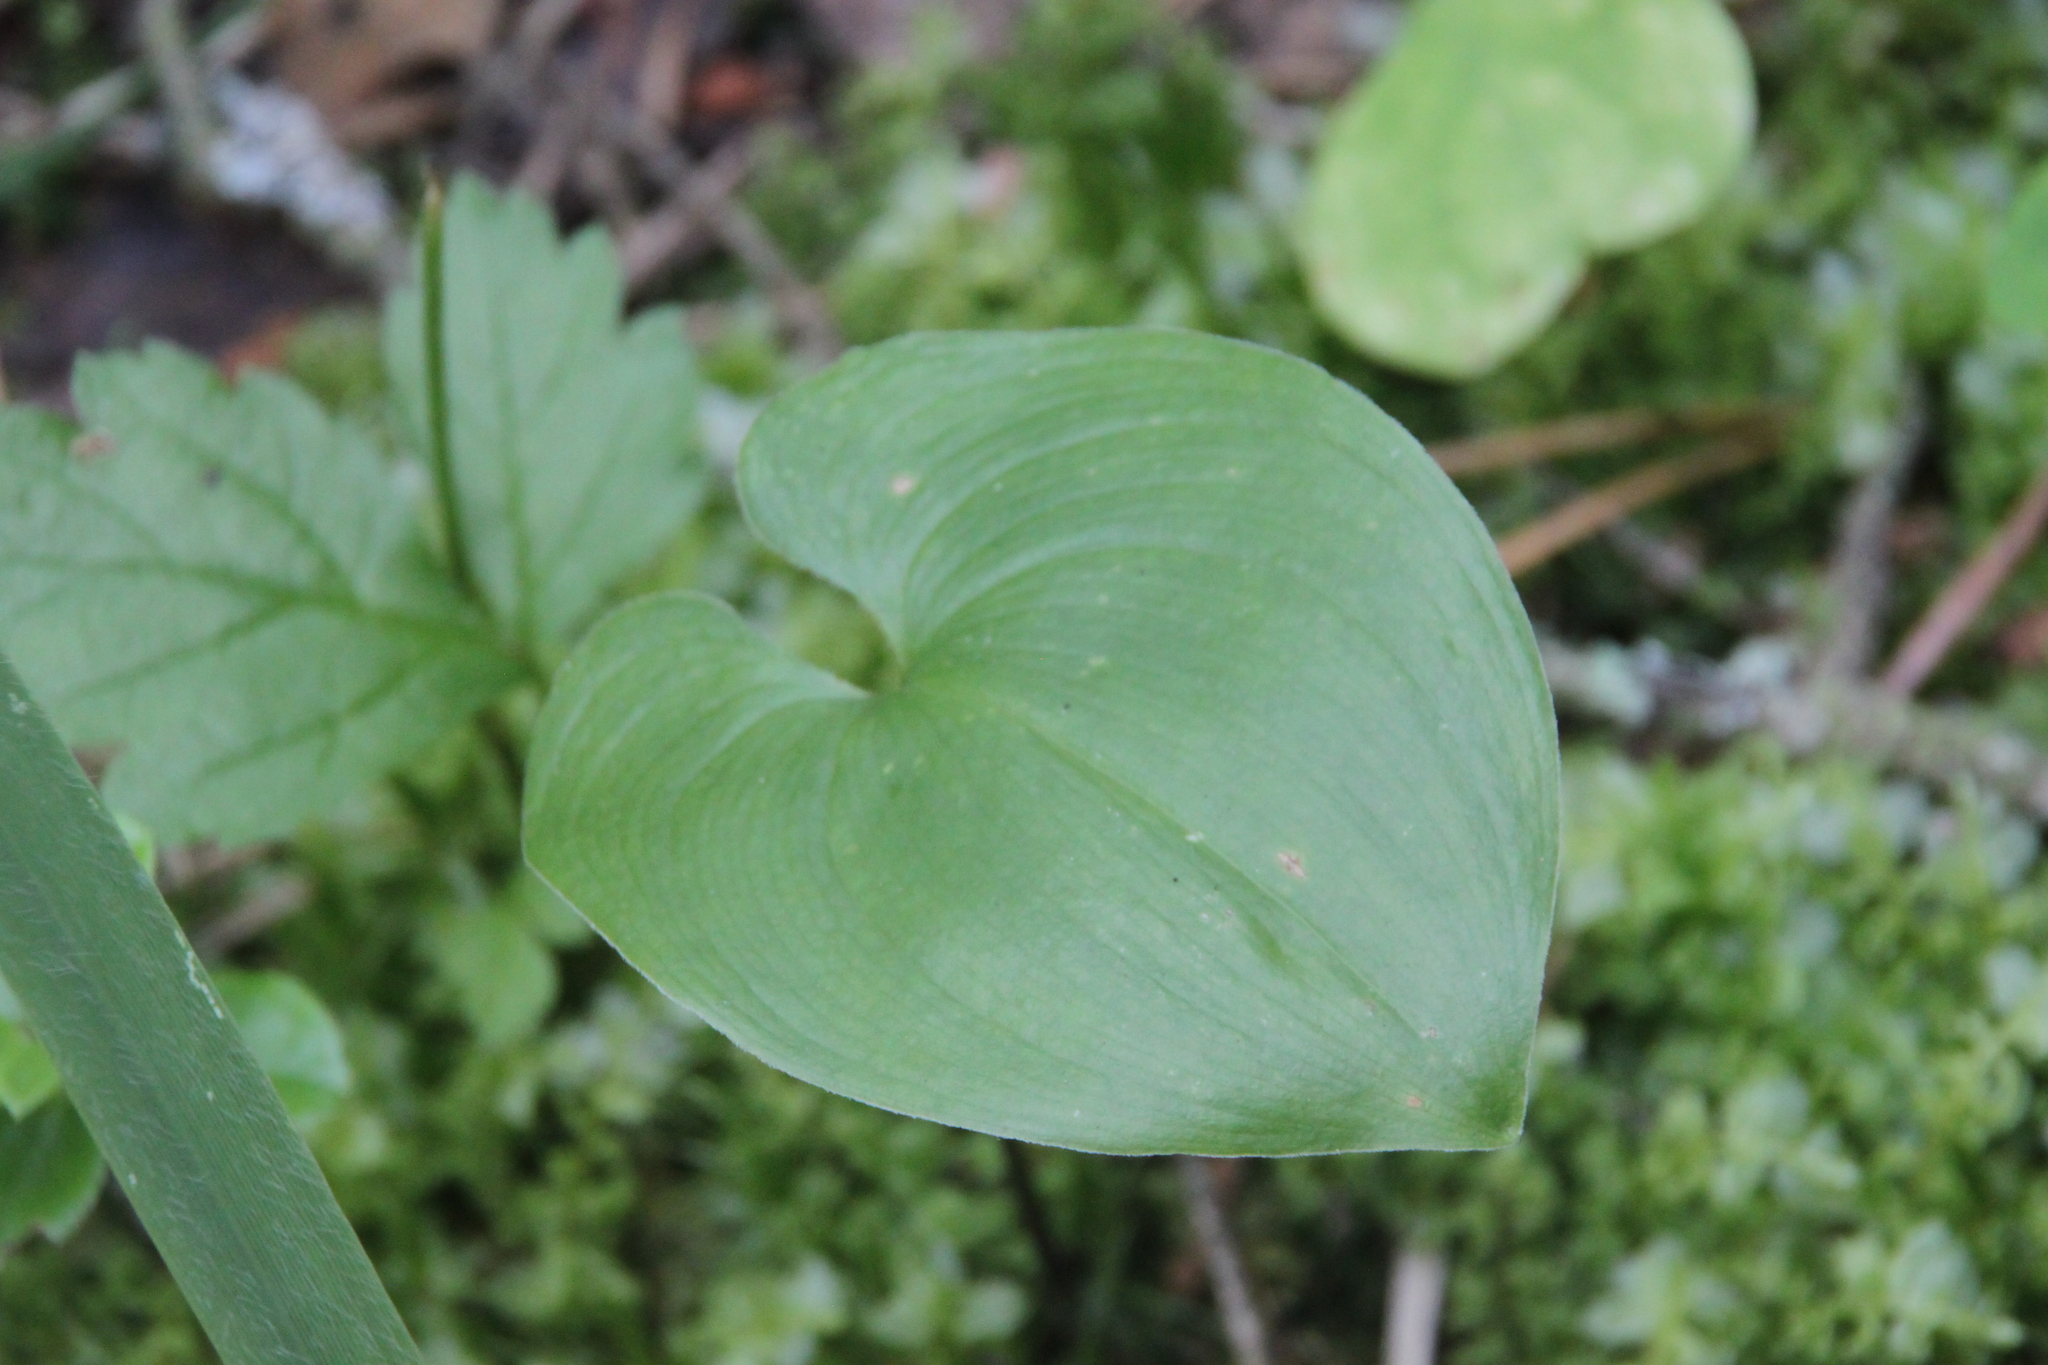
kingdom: Plantae
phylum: Tracheophyta
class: Liliopsida
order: Asparagales
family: Asparagaceae
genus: Maianthemum
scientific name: Maianthemum bifolium
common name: May lily
